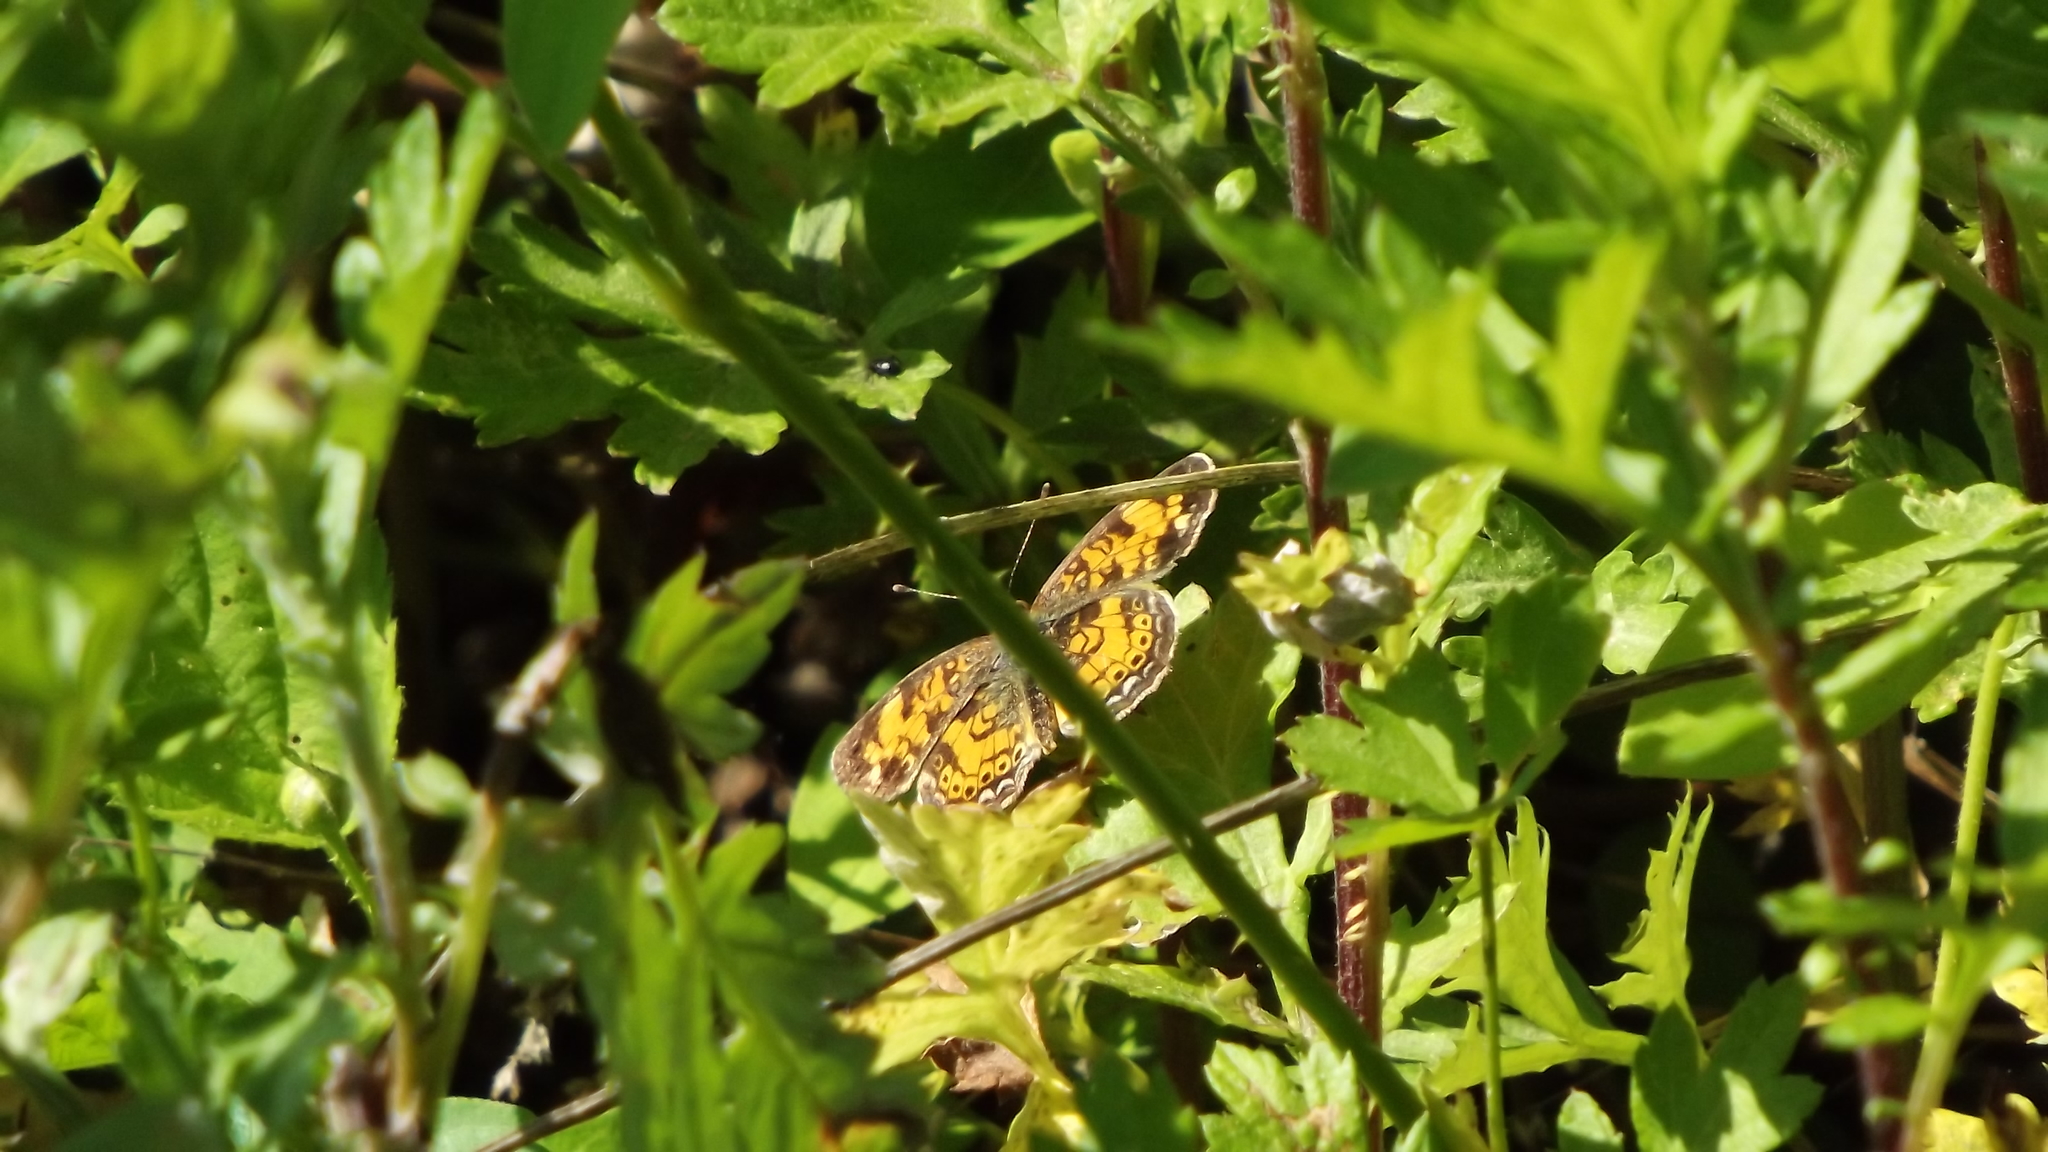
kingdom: Animalia
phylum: Arthropoda
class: Insecta
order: Lepidoptera
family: Nymphalidae
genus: Phyciodes
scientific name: Phyciodes tharos
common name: Pearl crescent
